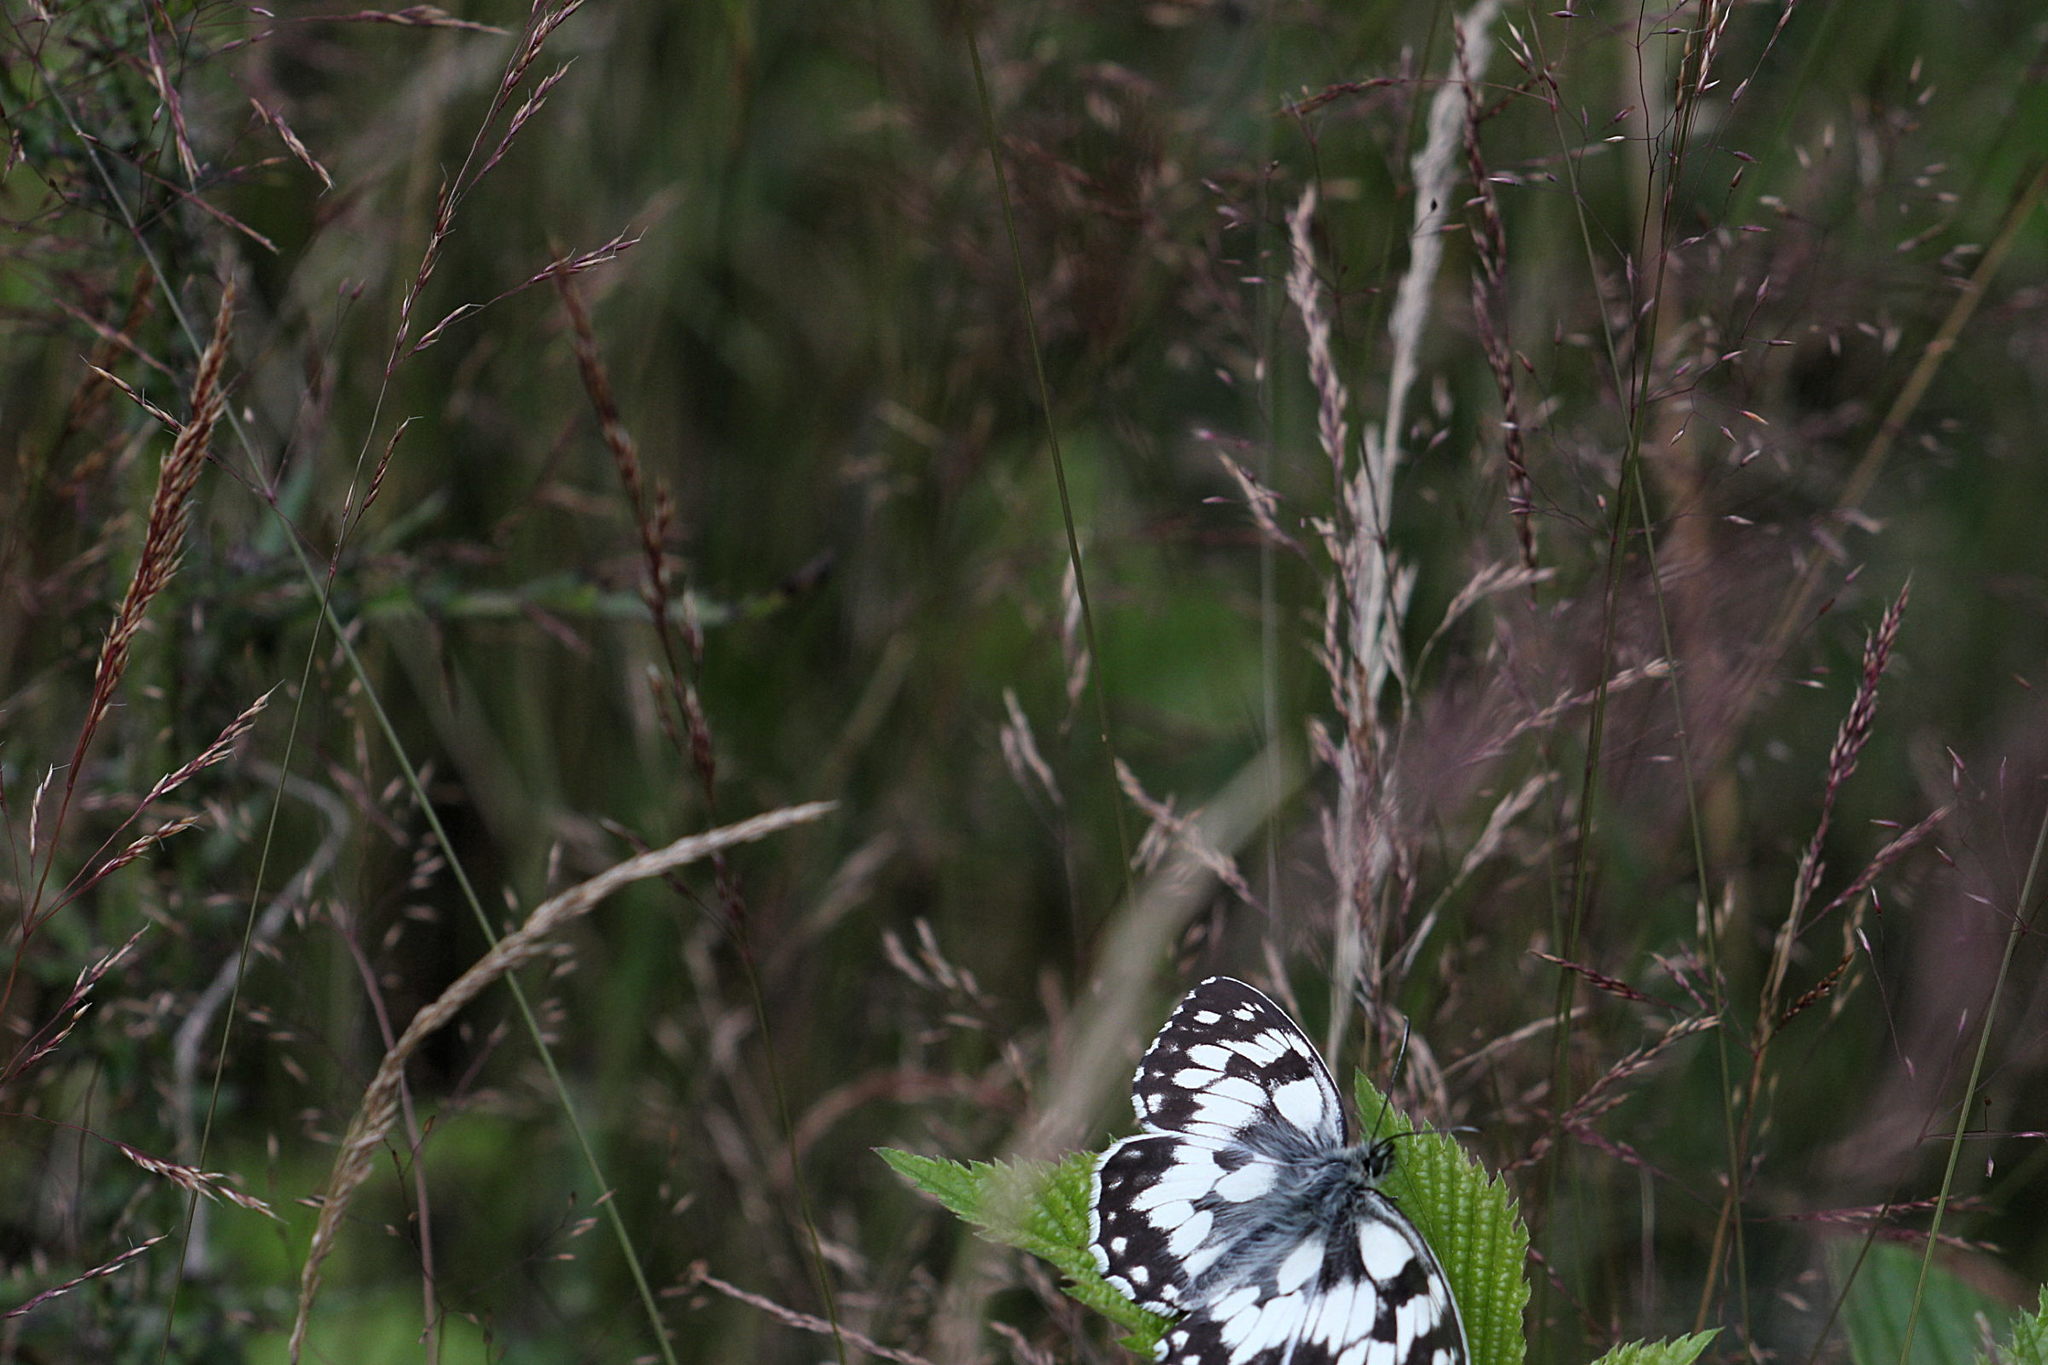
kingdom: Animalia
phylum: Arthropoda
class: Insecta
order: Lepidoptera
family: Nymphalidae
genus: Melanargia
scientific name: Melanargia galathea
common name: Marbled white
